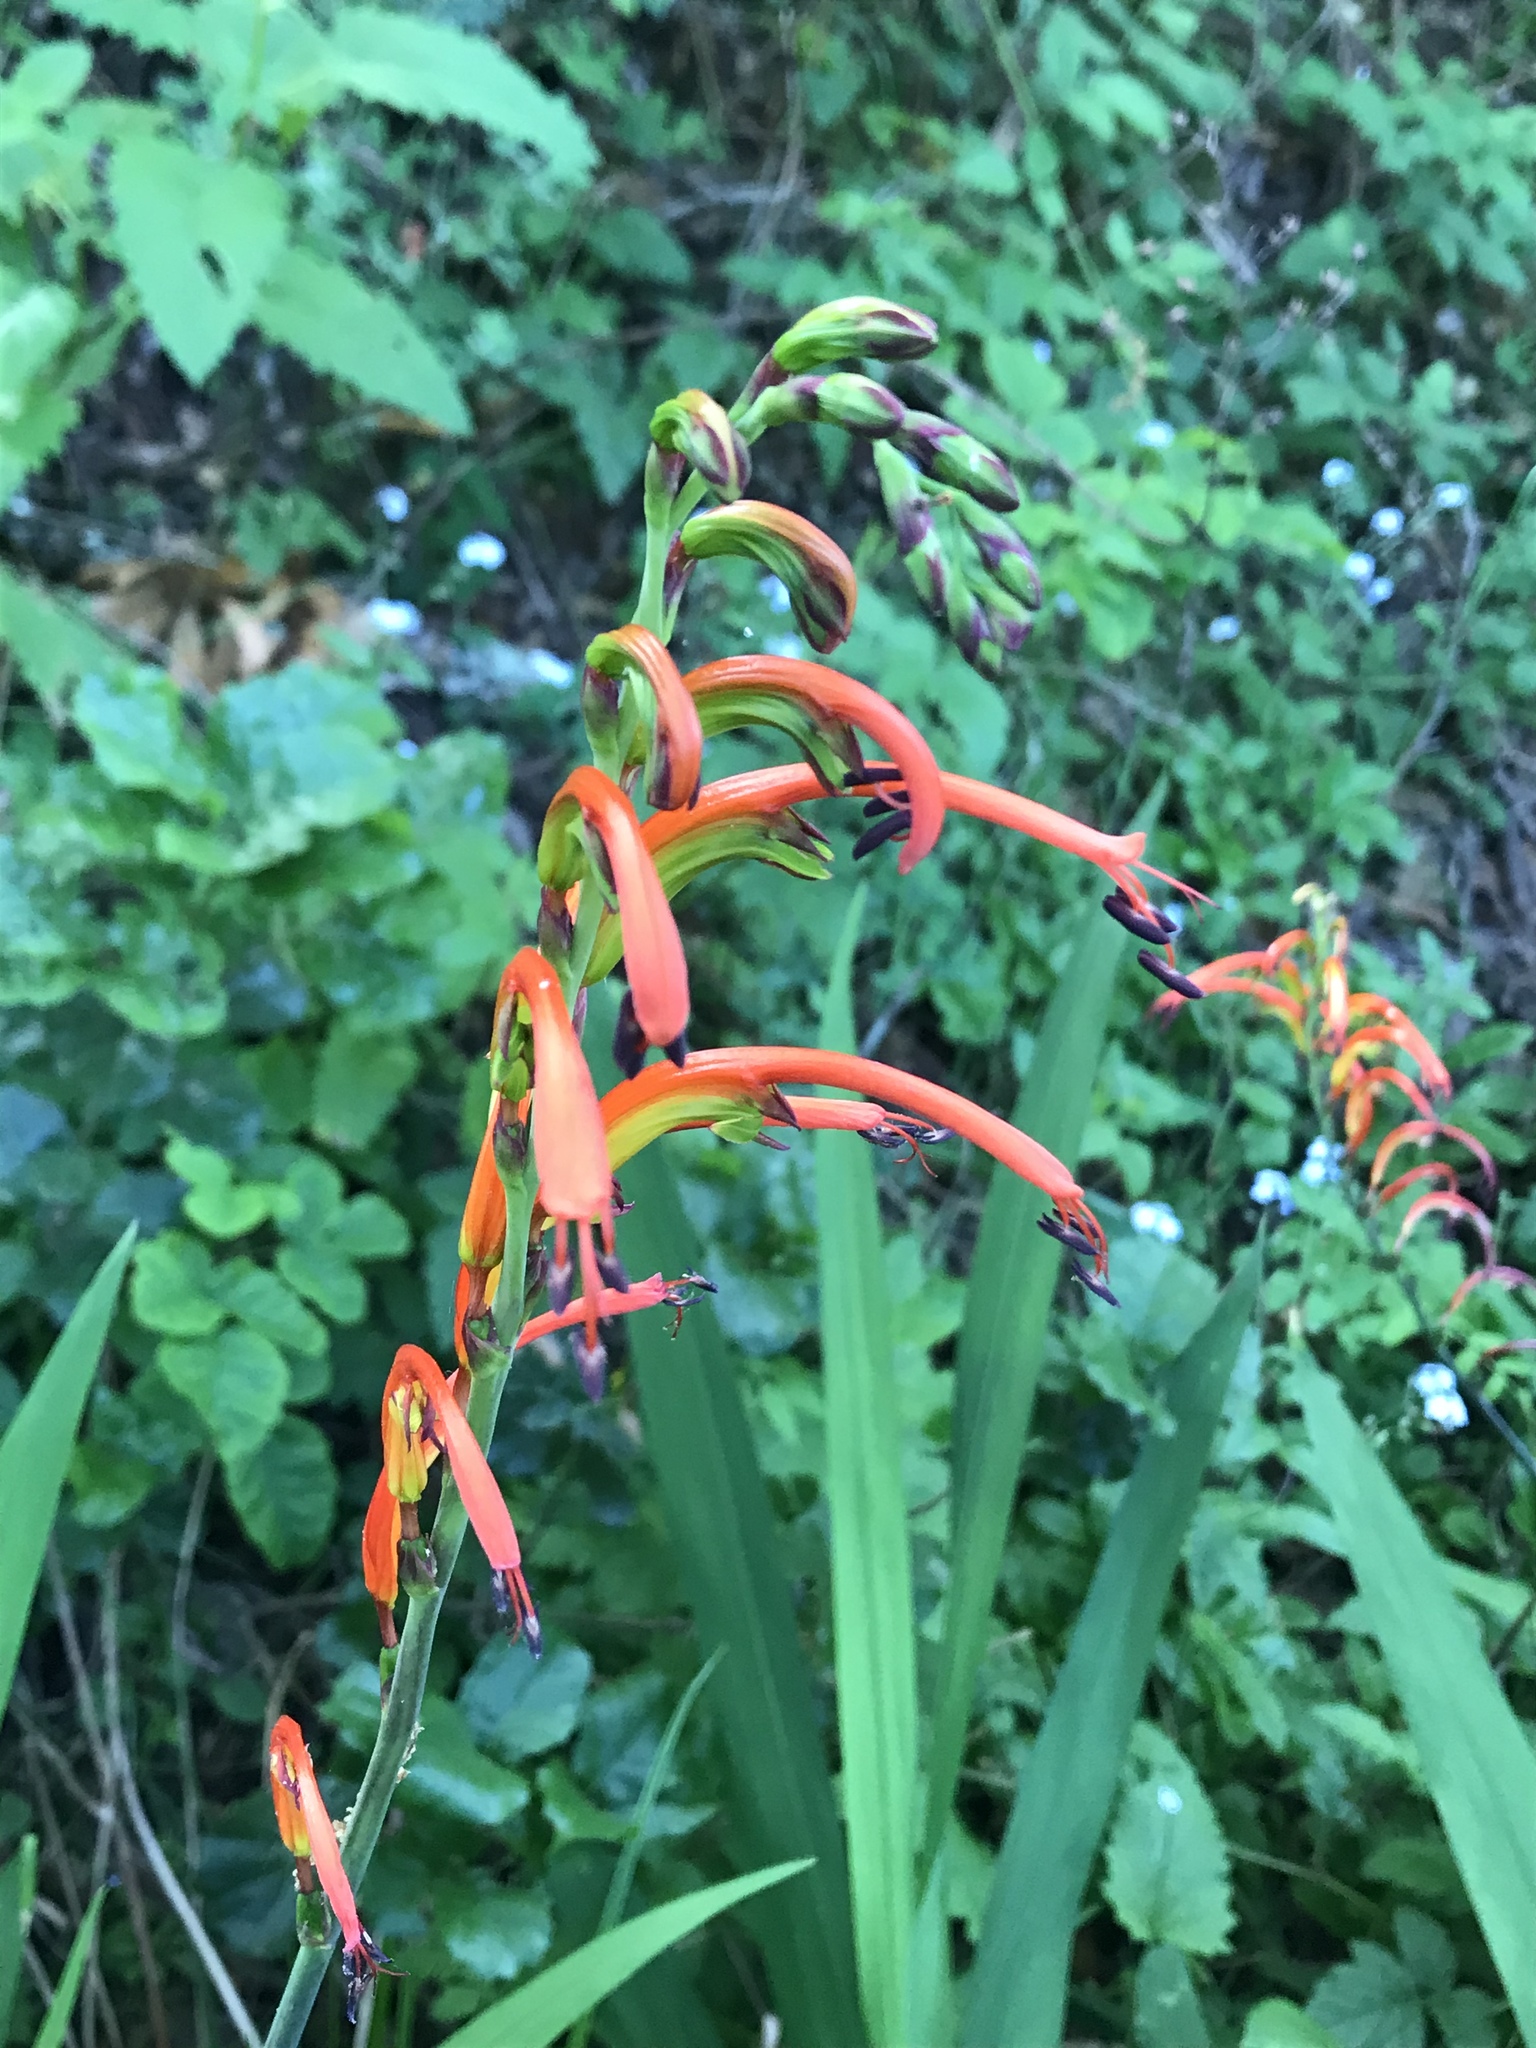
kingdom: Plantae
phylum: Tracheophyta
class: Liliopsida
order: Asparagales
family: Iridaceae
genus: Chasmanthe
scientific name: Chasmanthe bicolor
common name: Bicolor cobra lily
